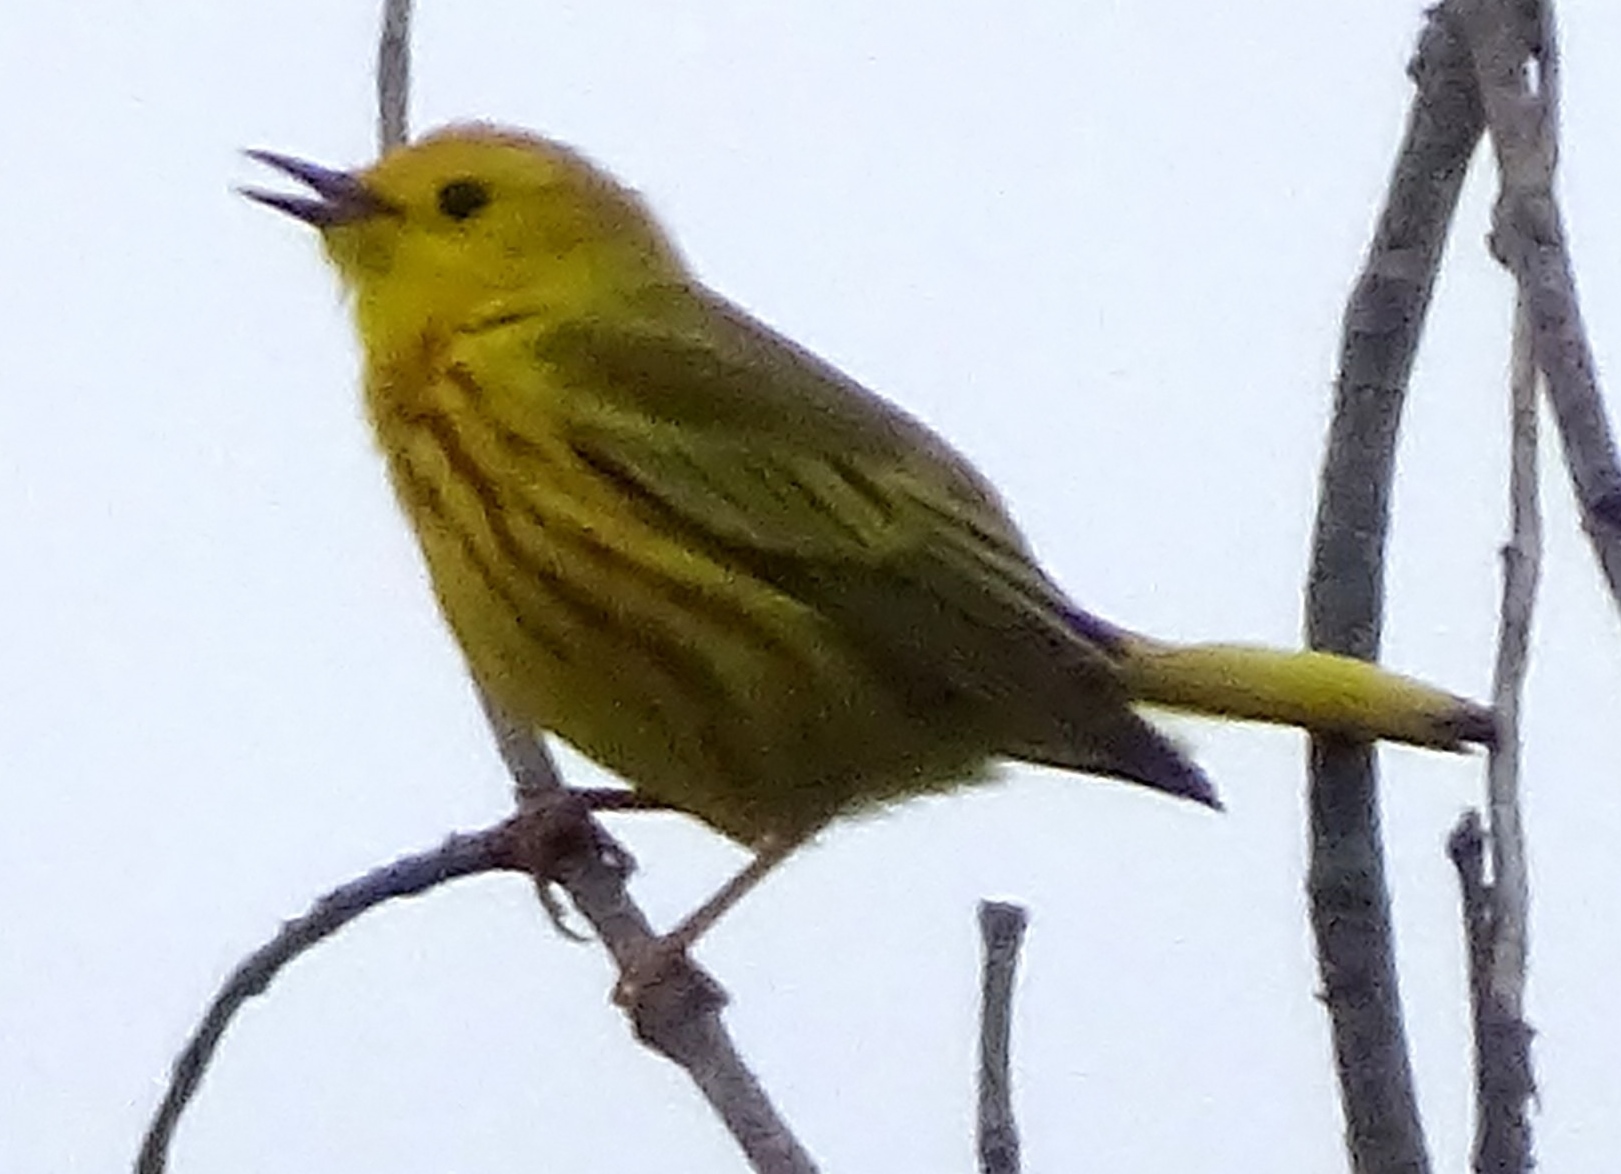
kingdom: Animalia
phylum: Chordata
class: Aves
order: Passeriformes
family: Parulidae
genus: Setophaga
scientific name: Setophaga petechia
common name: Yellow warbler
